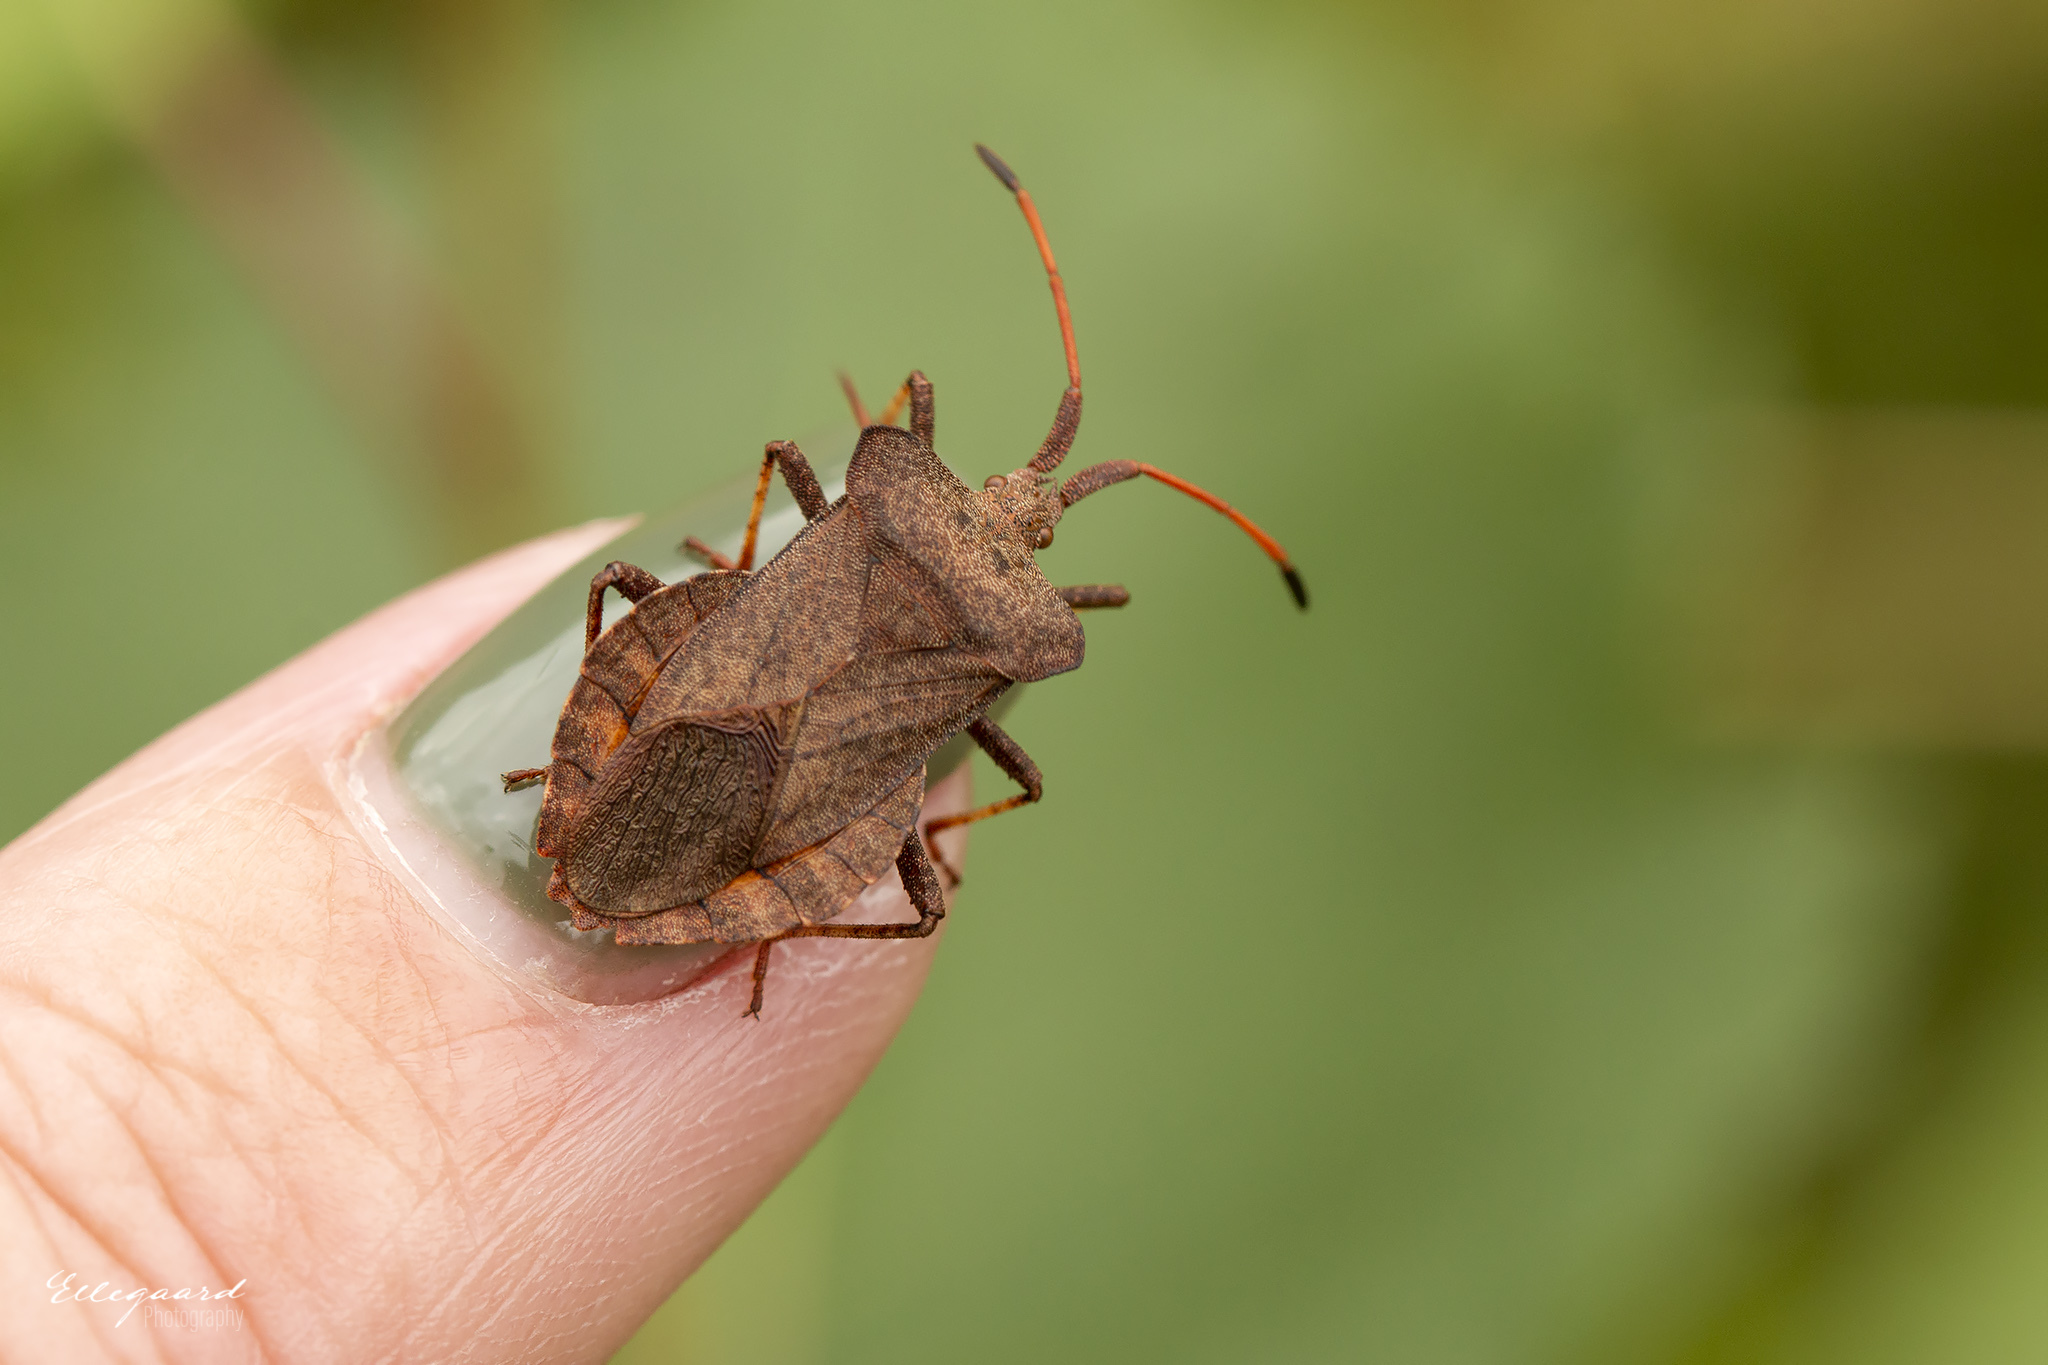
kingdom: Animalia
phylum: Arthropoda
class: Insecta
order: Hemiptera
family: Coreidae
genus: Coreus
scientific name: Coreus marginatus
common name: Dock bug
